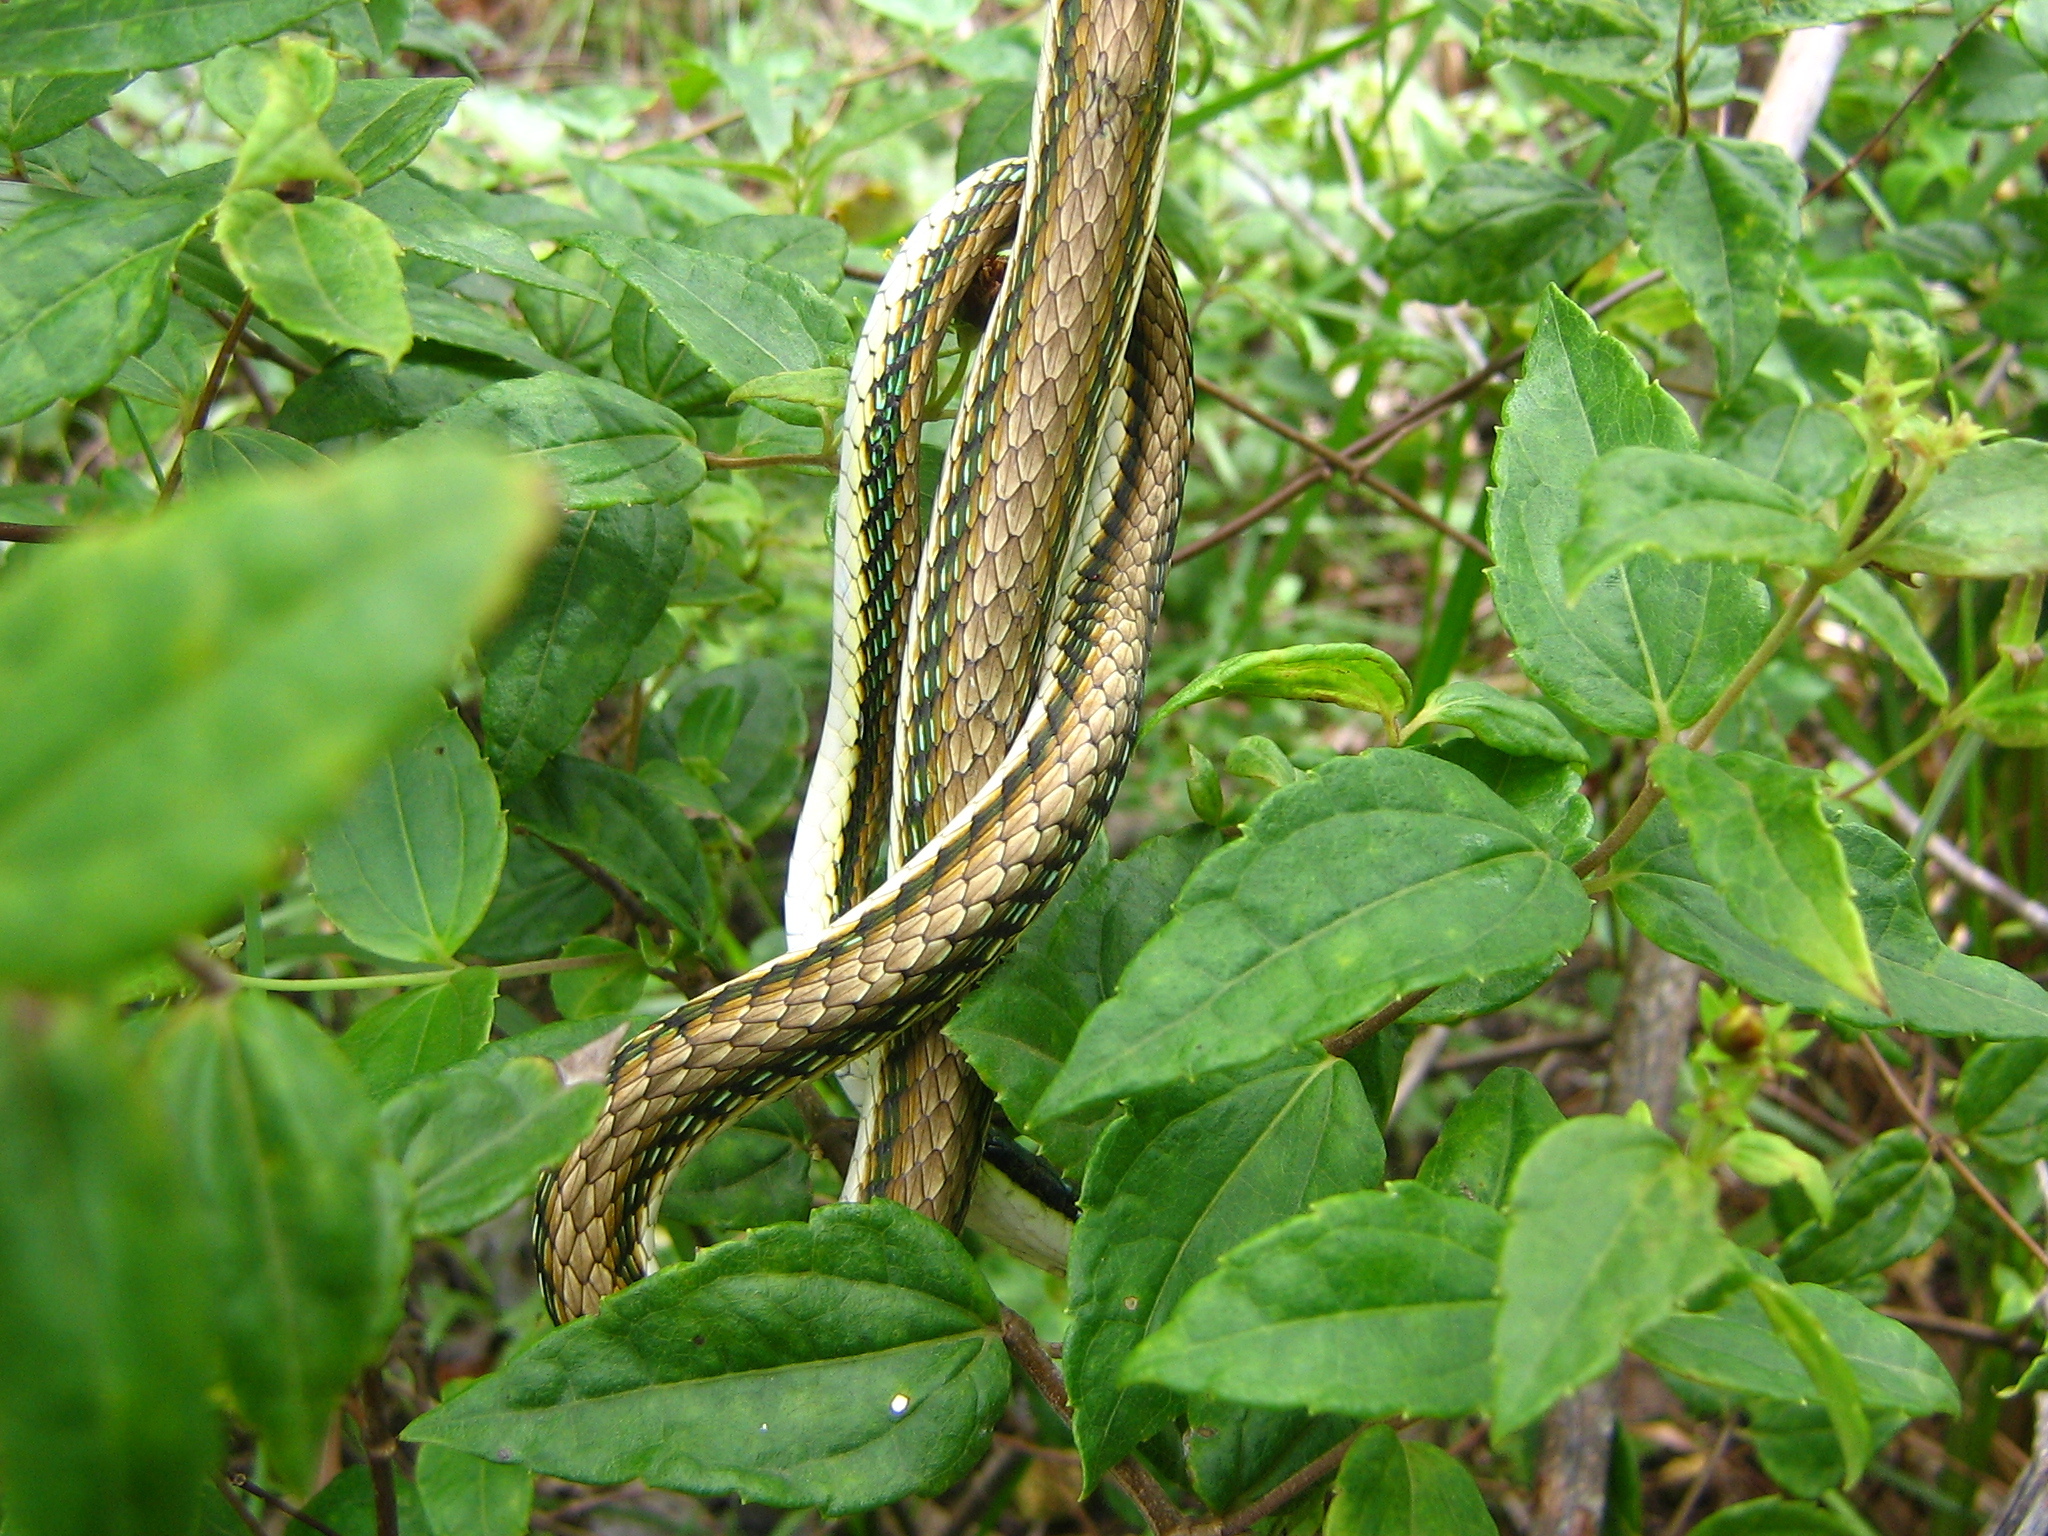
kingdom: Animalia
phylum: Chordata
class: Squamata
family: Colubridae
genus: Leptophis
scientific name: Leptophis mexicanus
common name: Mexican parrot snake
